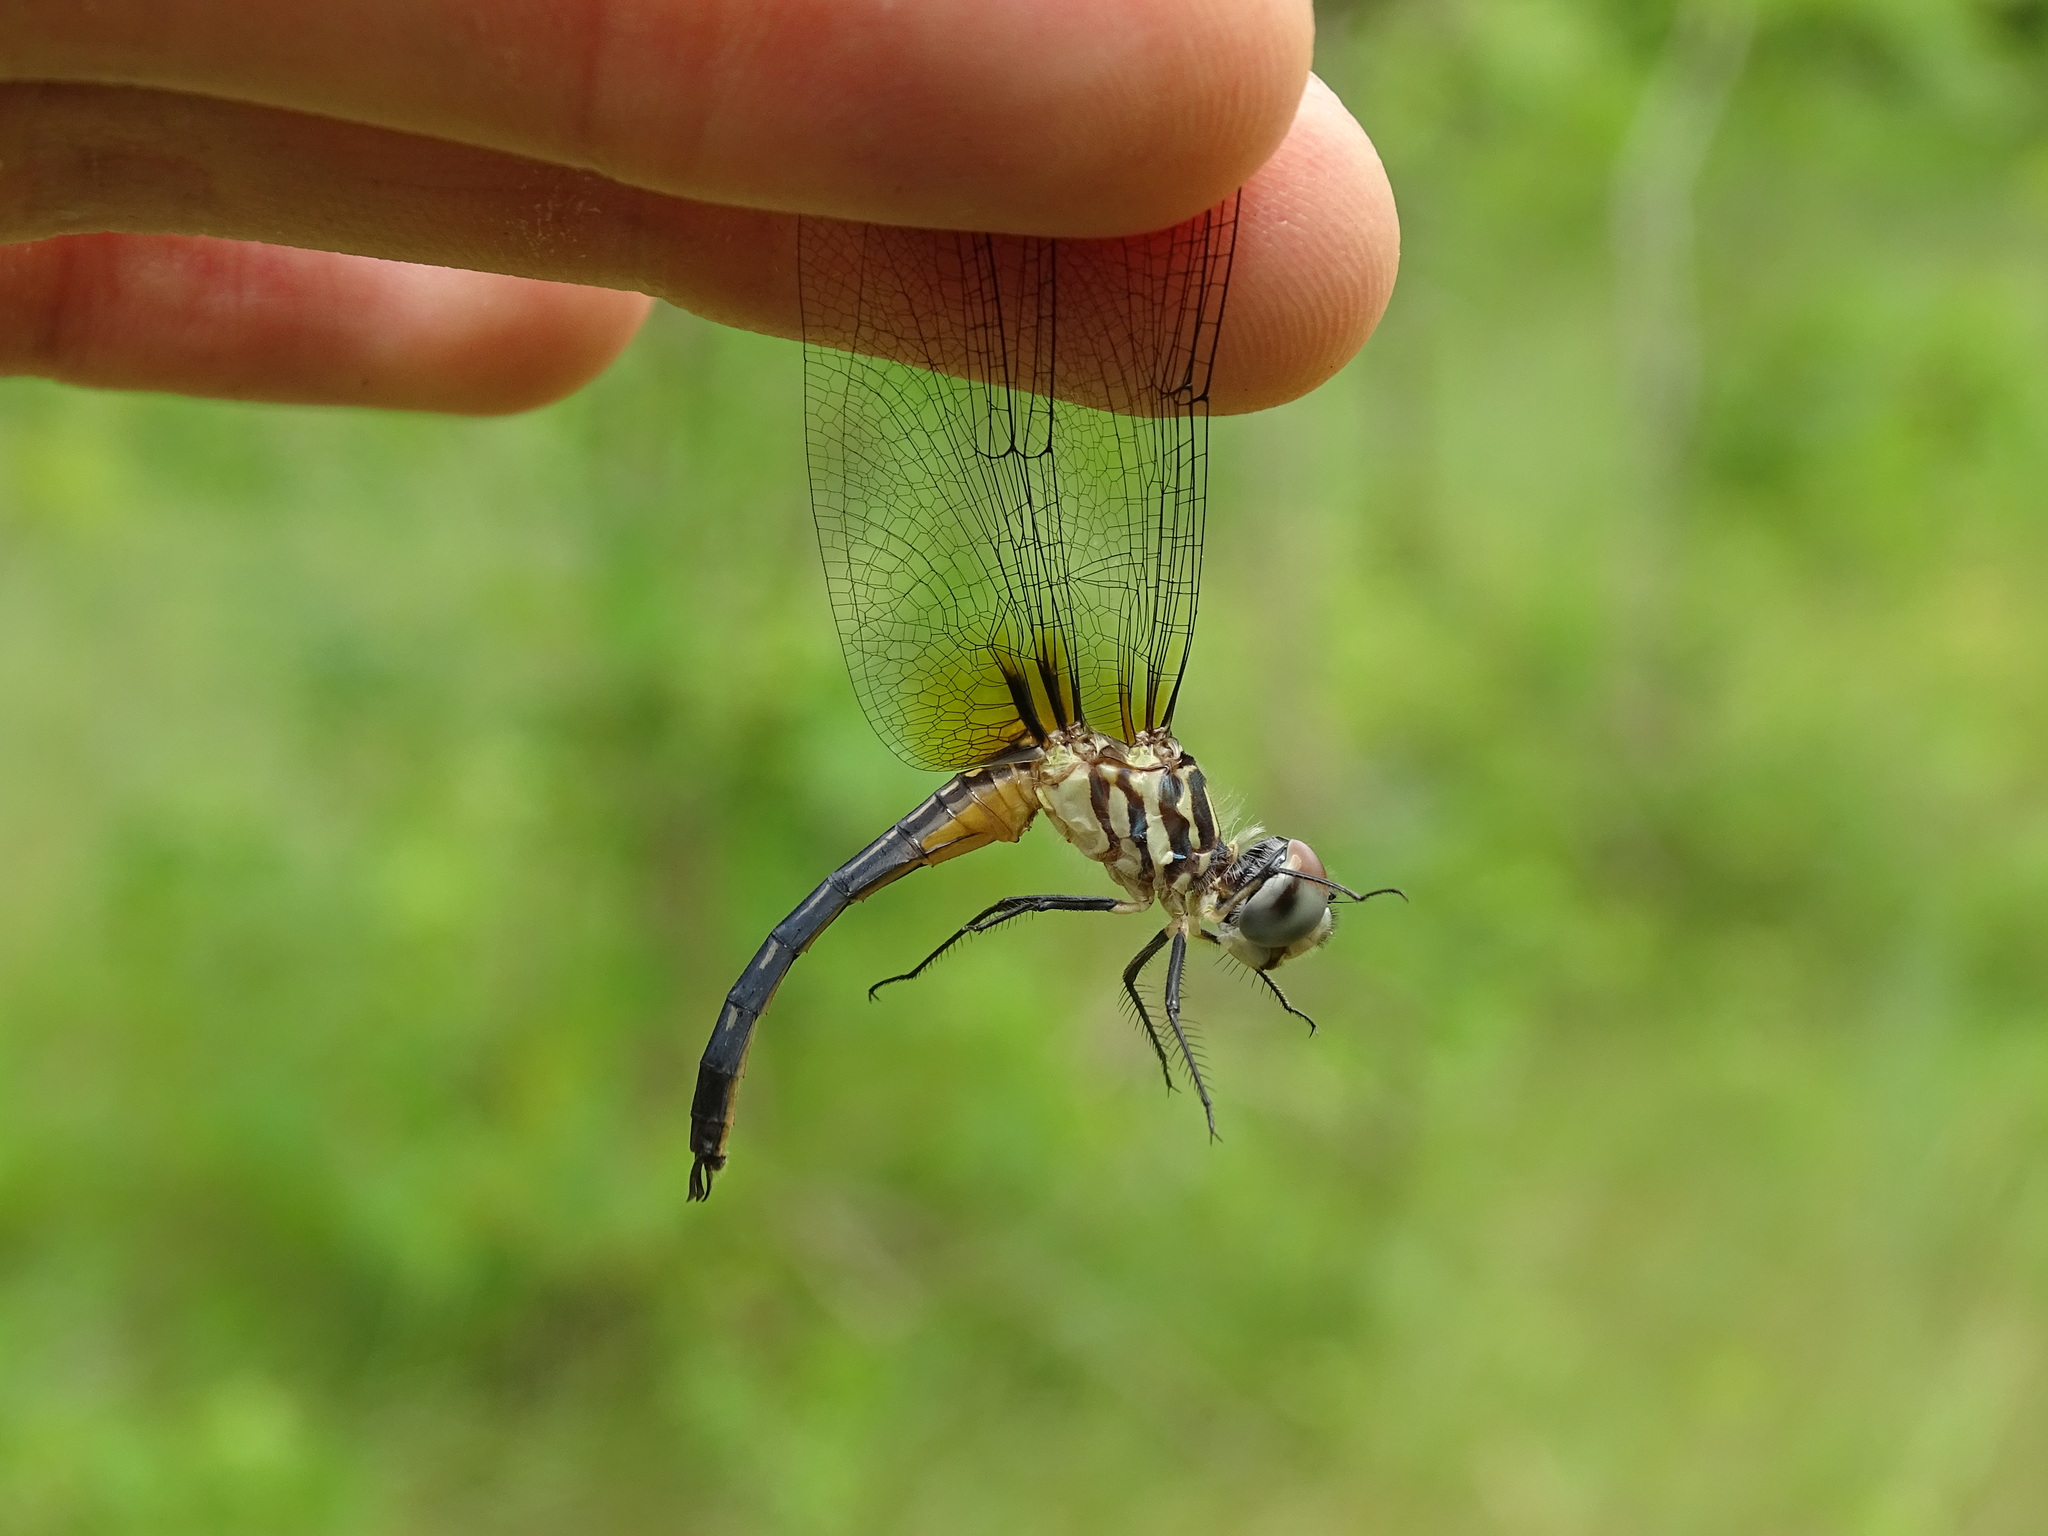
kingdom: Animalia
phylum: Arthropoda
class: Insecta
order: Odonata
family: Libellulidae
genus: Pachydiplax
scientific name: Pachydiplax longipennis
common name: Blue dasher
